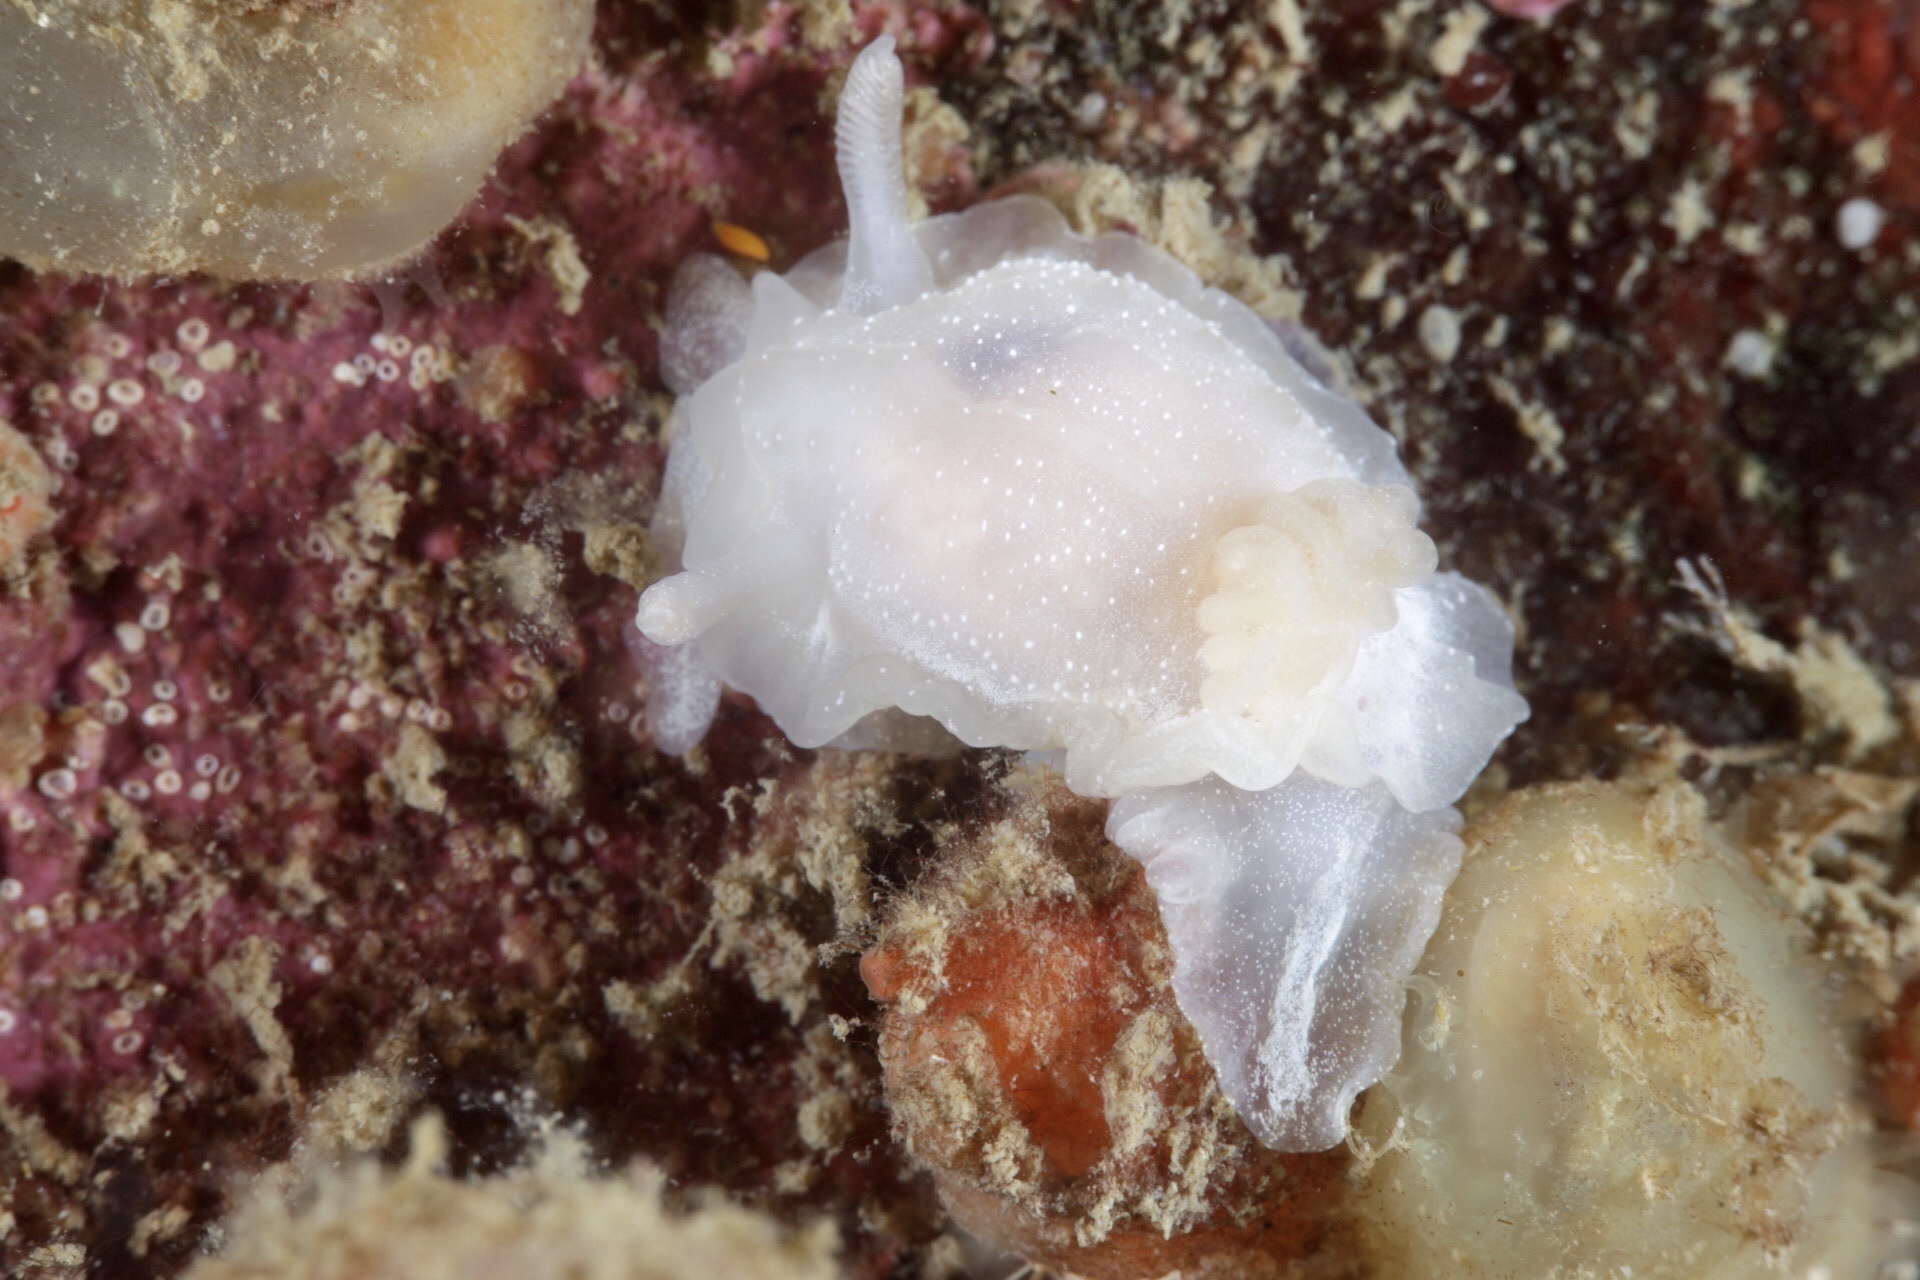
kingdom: Animalia
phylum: Mollusca
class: Gastropoda
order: Nudibranchia
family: Goniodorididae
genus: Okenia
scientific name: Okenia
